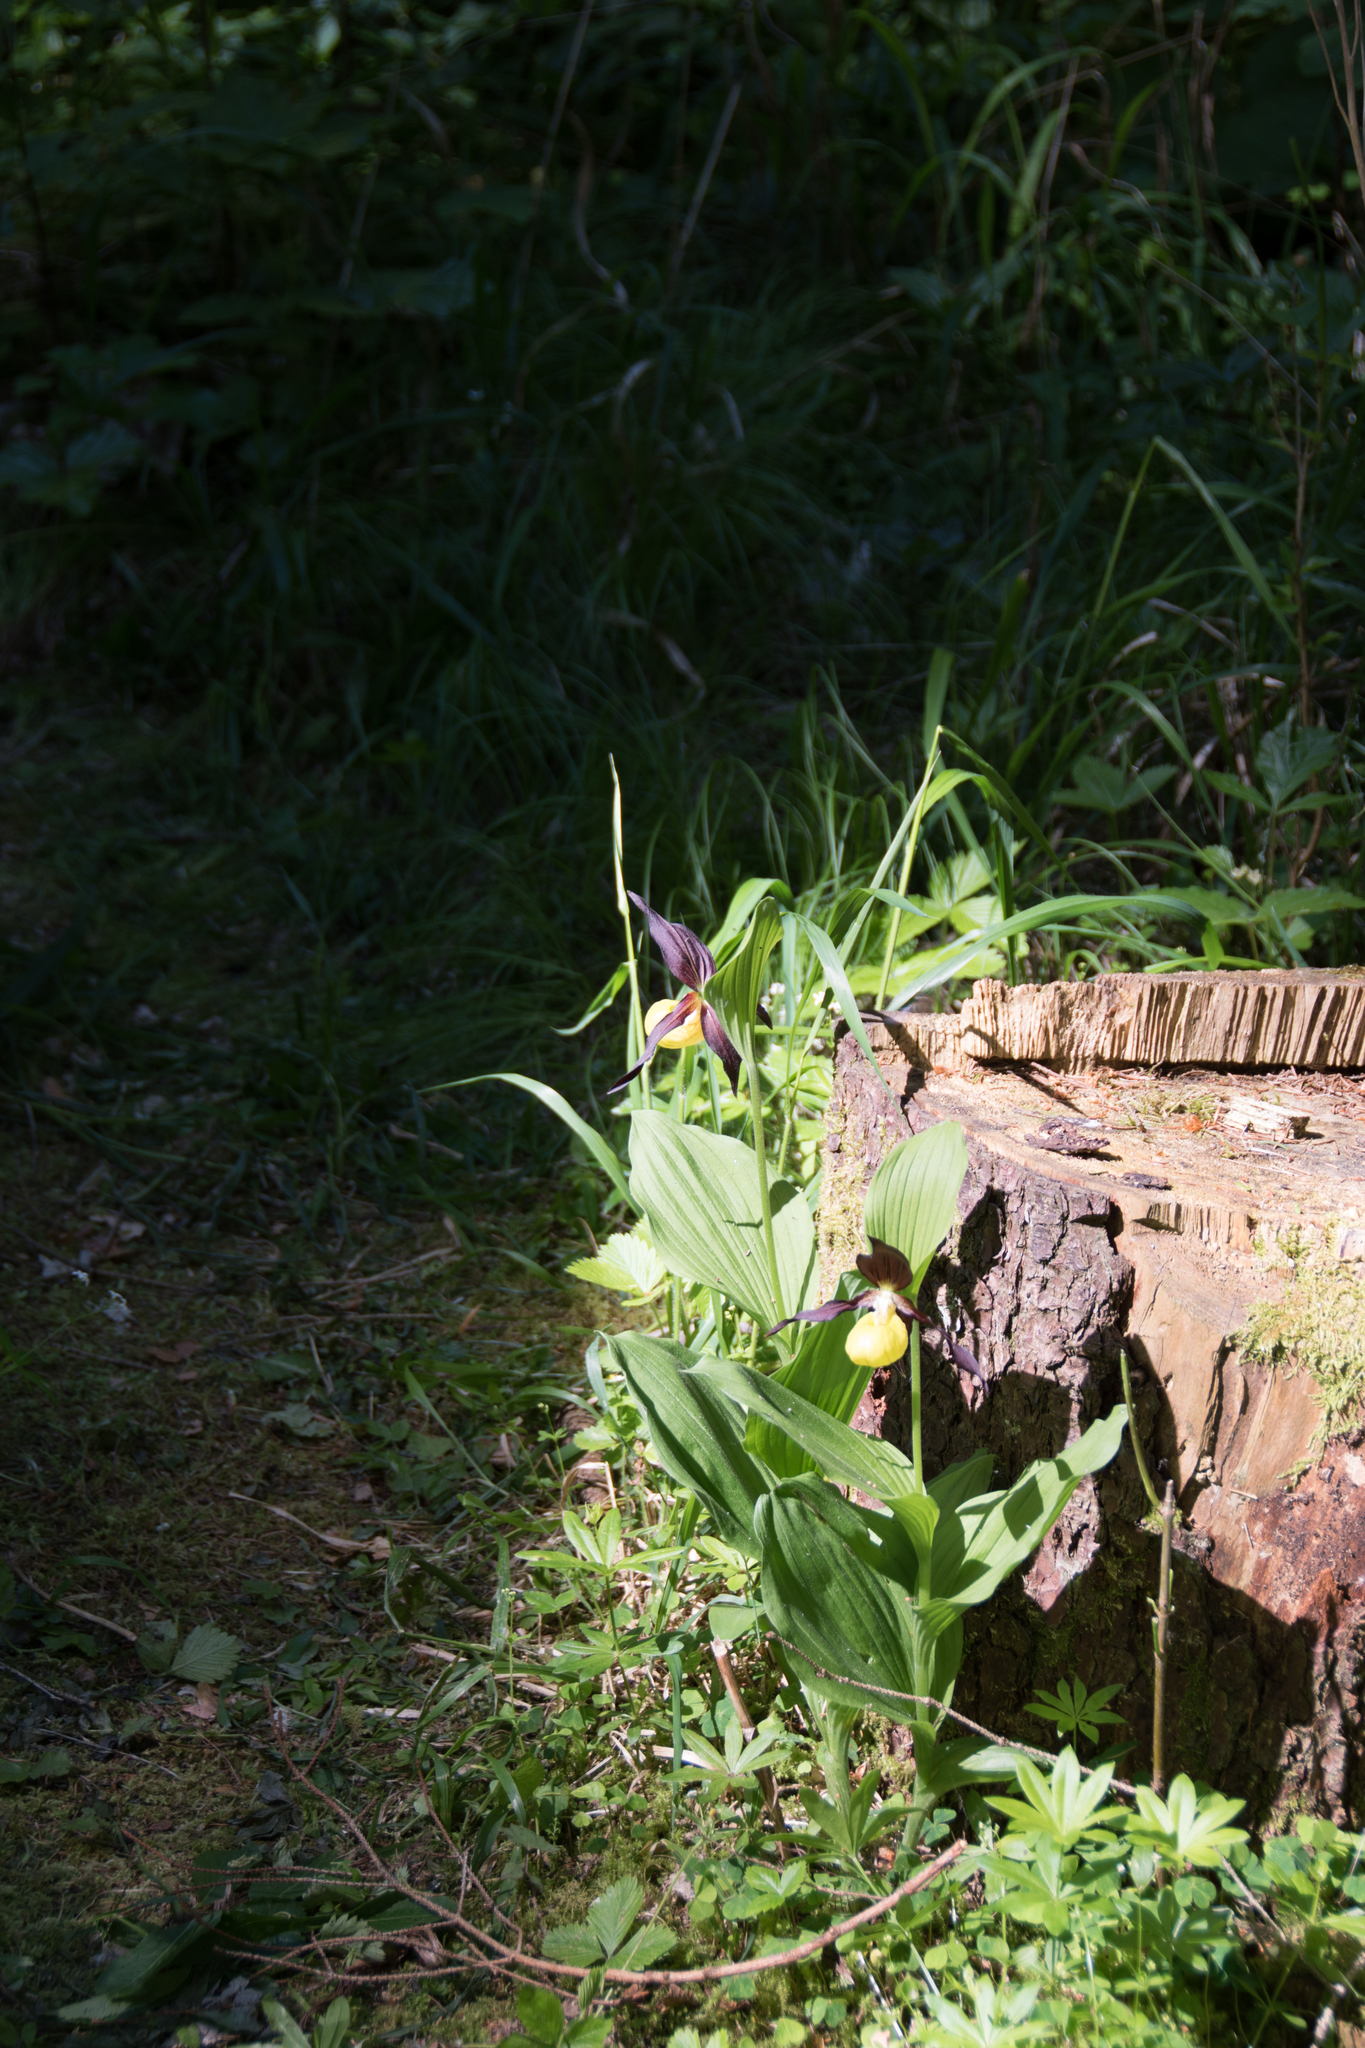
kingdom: Plantae
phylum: Tracheophyta
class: Liliopsida
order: Asparagales
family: Orchidaceae
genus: Cypripedium
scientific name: Cypripedium calceolus
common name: Lady's-slipper
